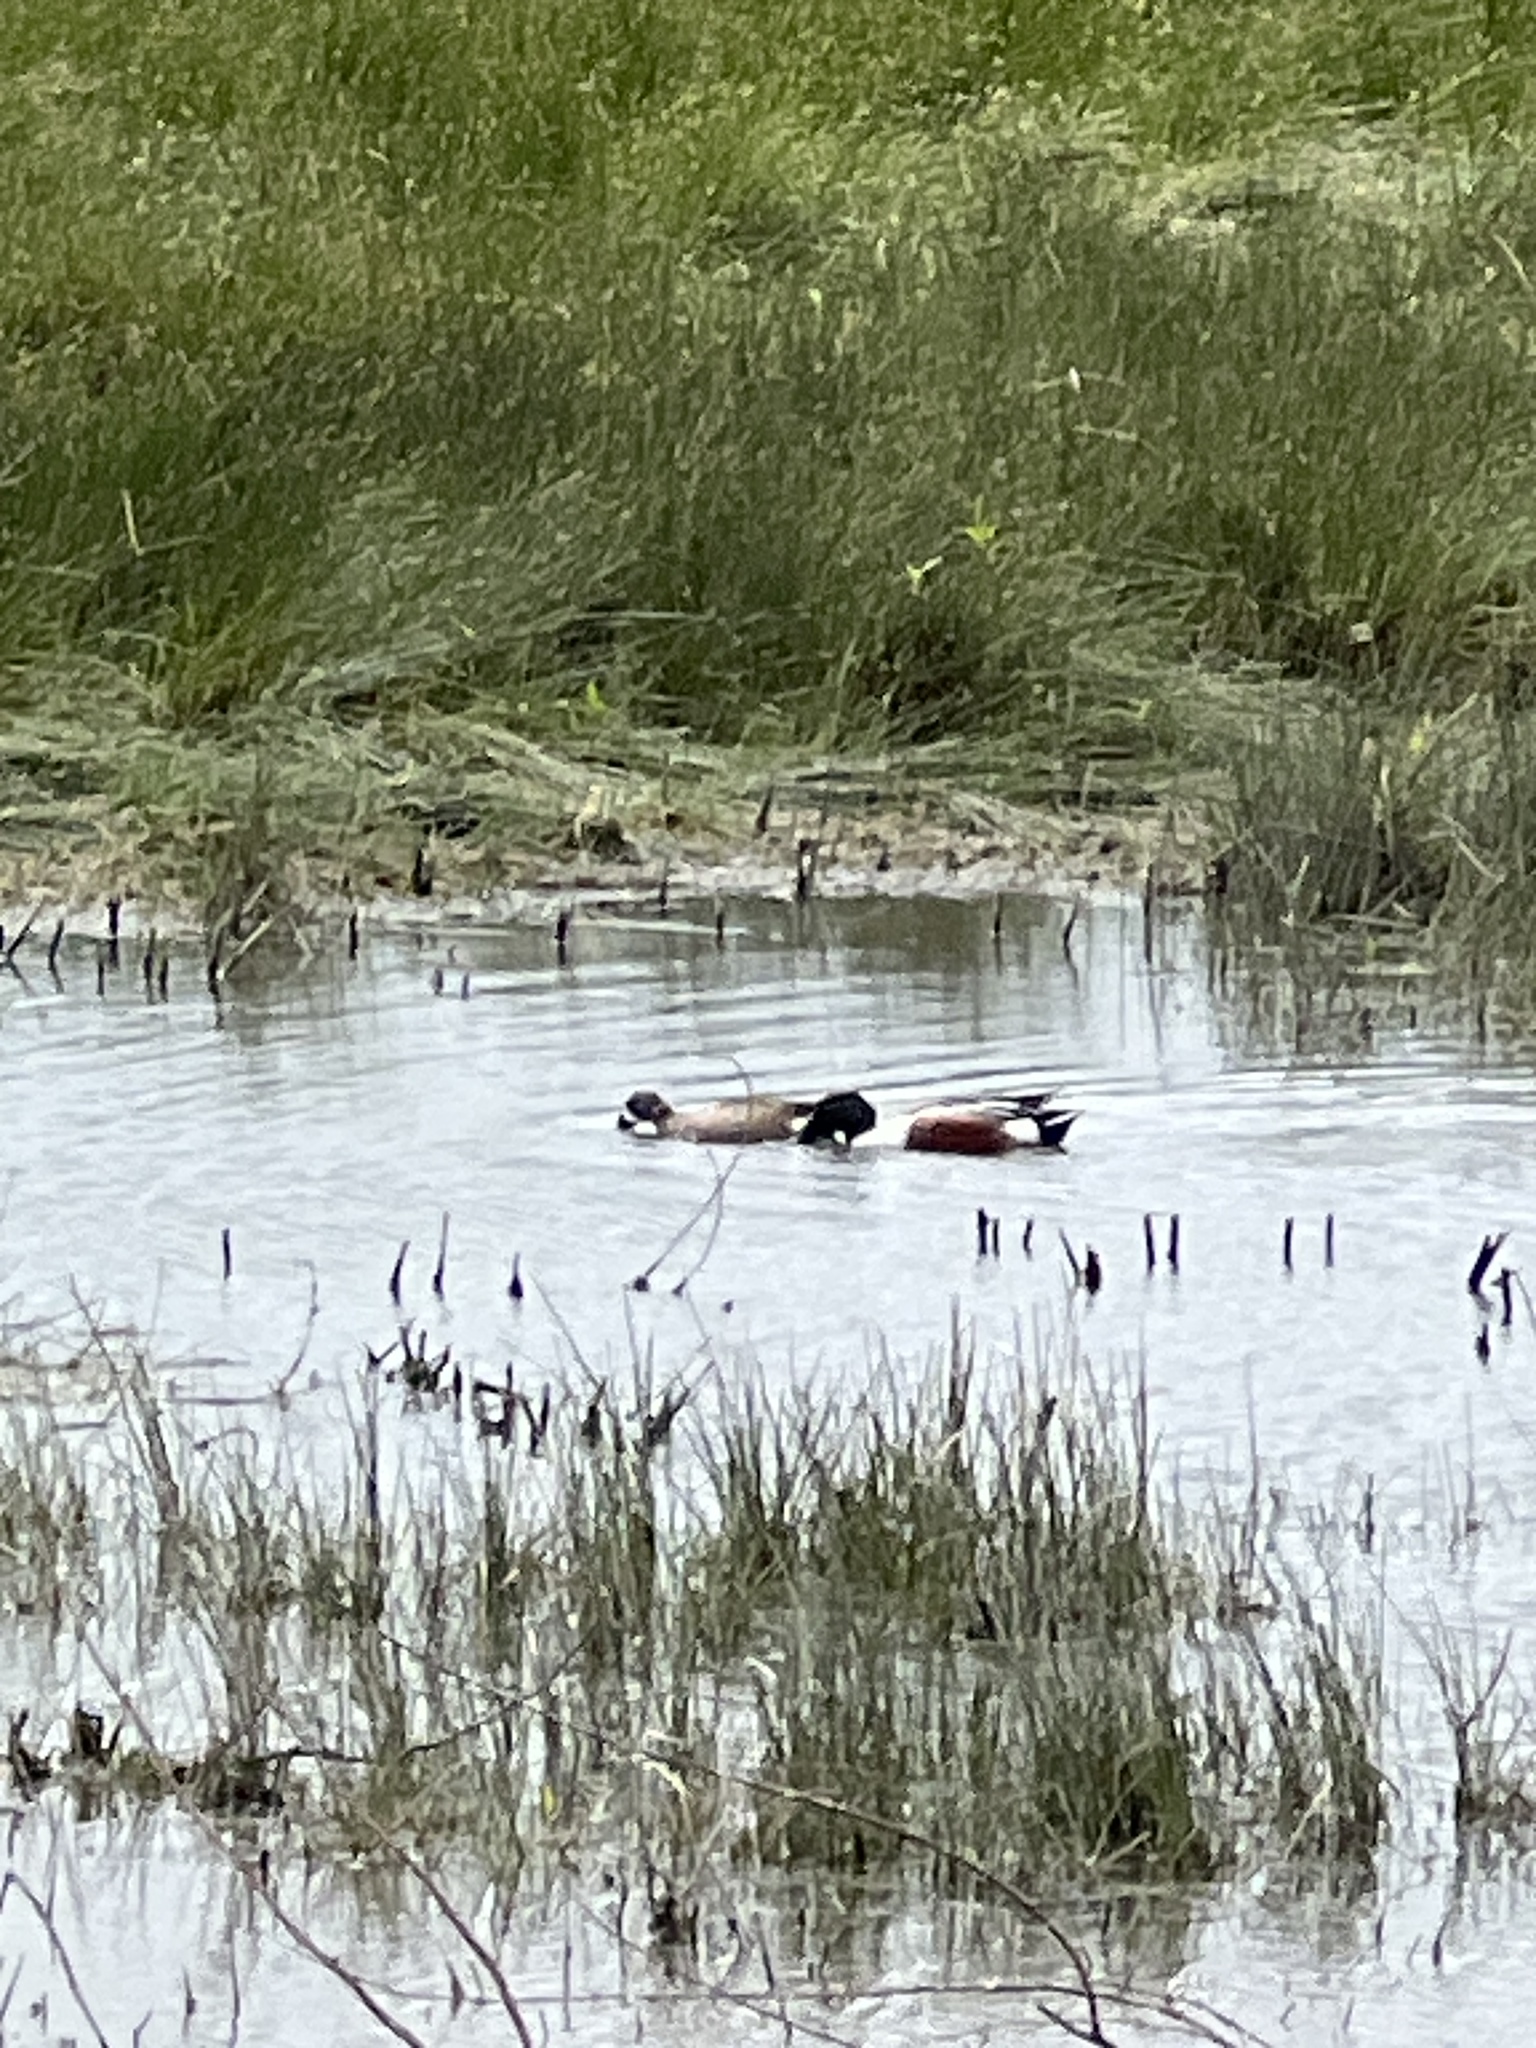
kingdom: Animalia
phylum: Chordata
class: Aves
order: Anseriformes
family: Anatidae
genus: Spatula
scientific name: Spatula clypeata
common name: Northern shoveler
